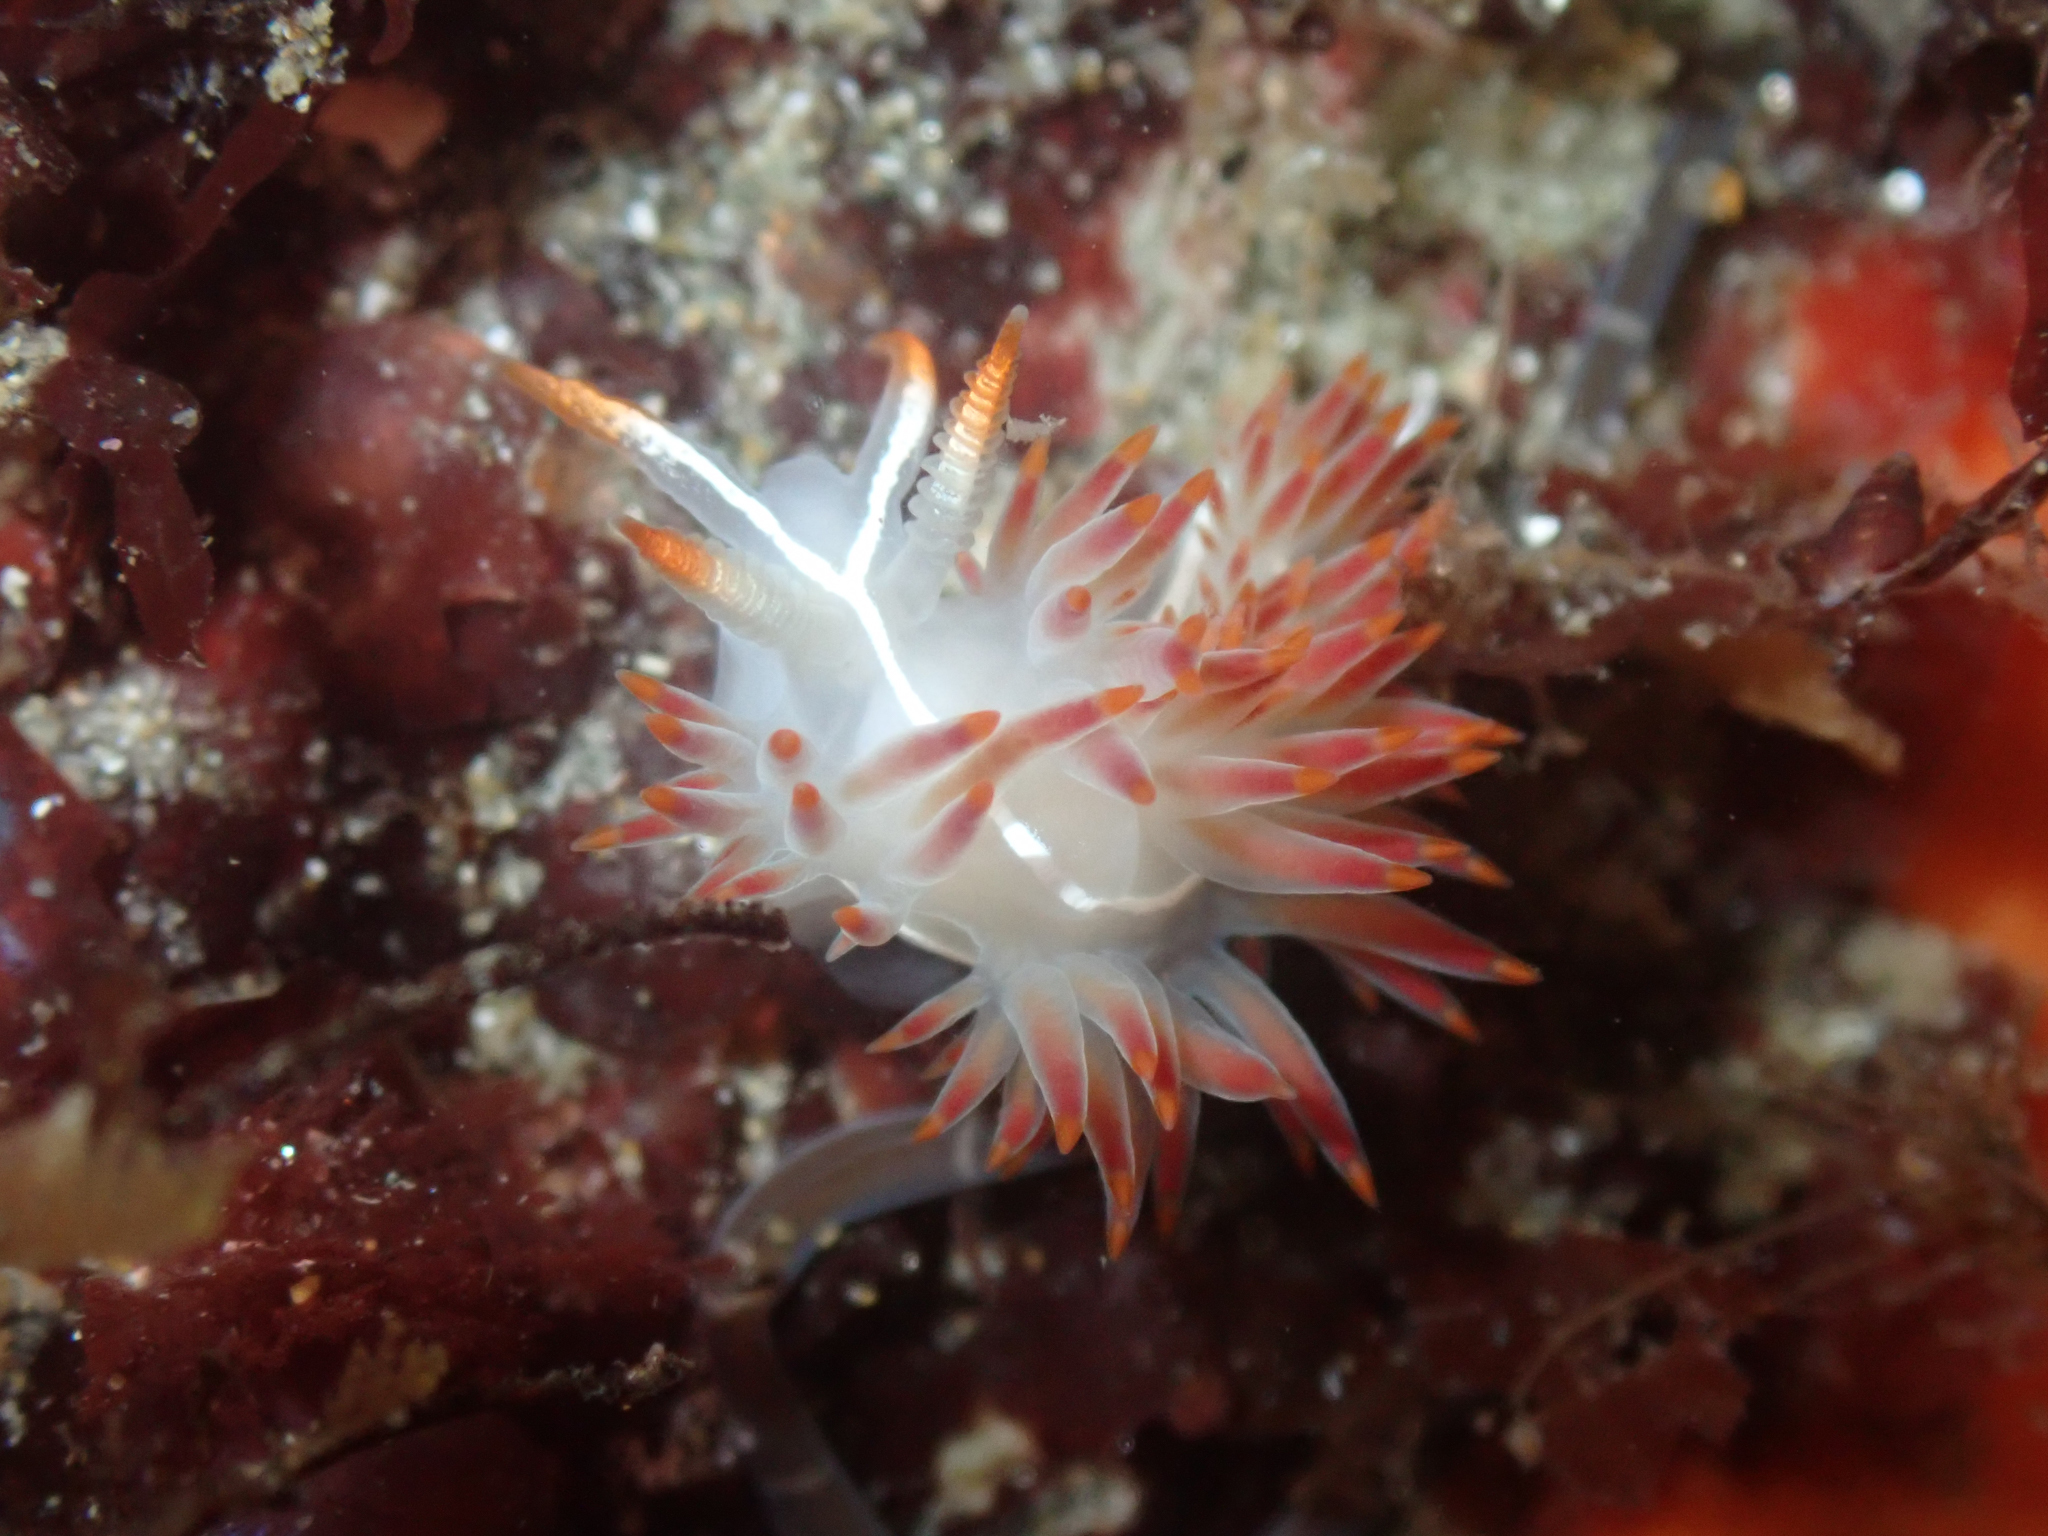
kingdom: Animalia
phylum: Mollusca
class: Gastropoda
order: Nudibranchia
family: Coryphellidae
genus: Coryphella
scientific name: Coryphella trilineata
